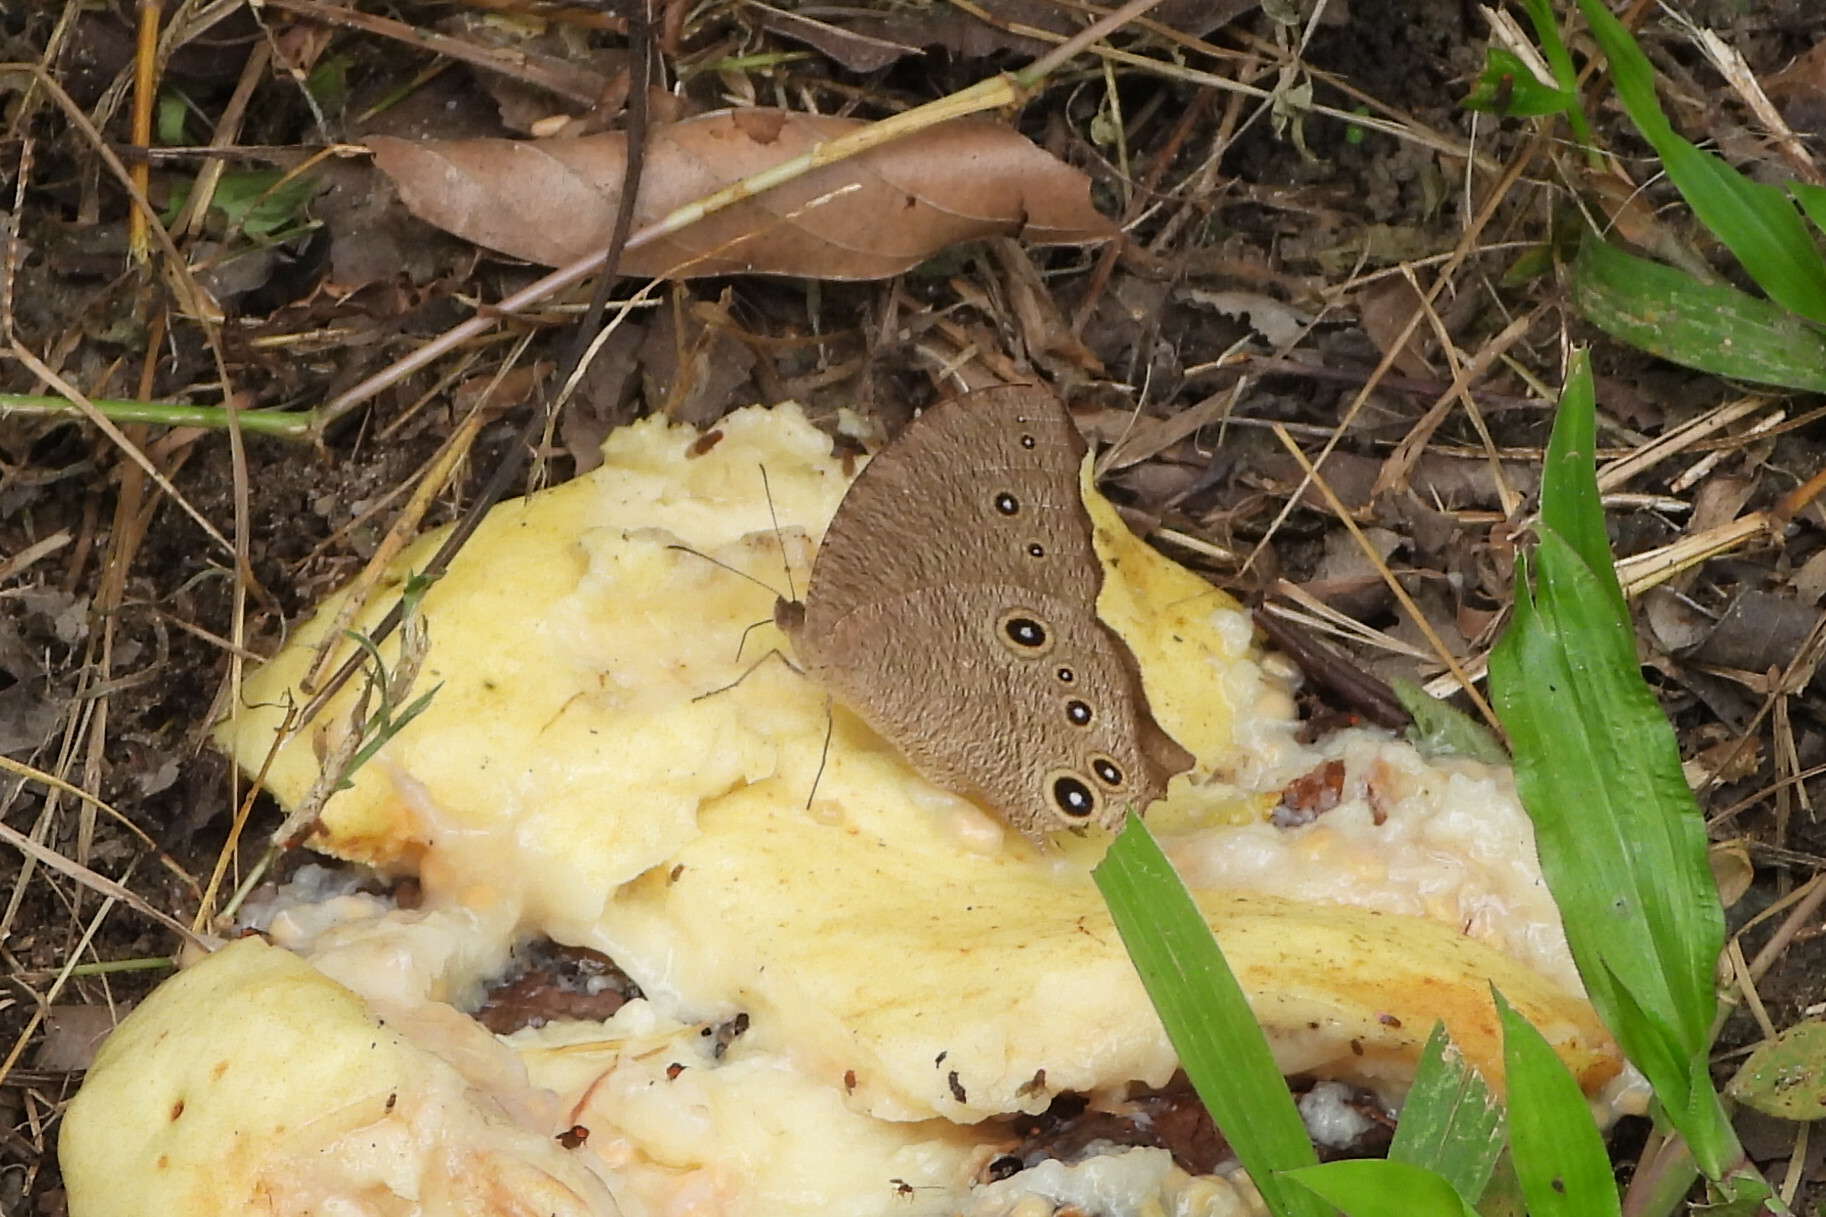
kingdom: Animalia
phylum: Arthropoda
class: Insecta
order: Lepidoptera
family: Nymphalidae
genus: Melanitis
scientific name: Melanitis leda
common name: Twilight brown
